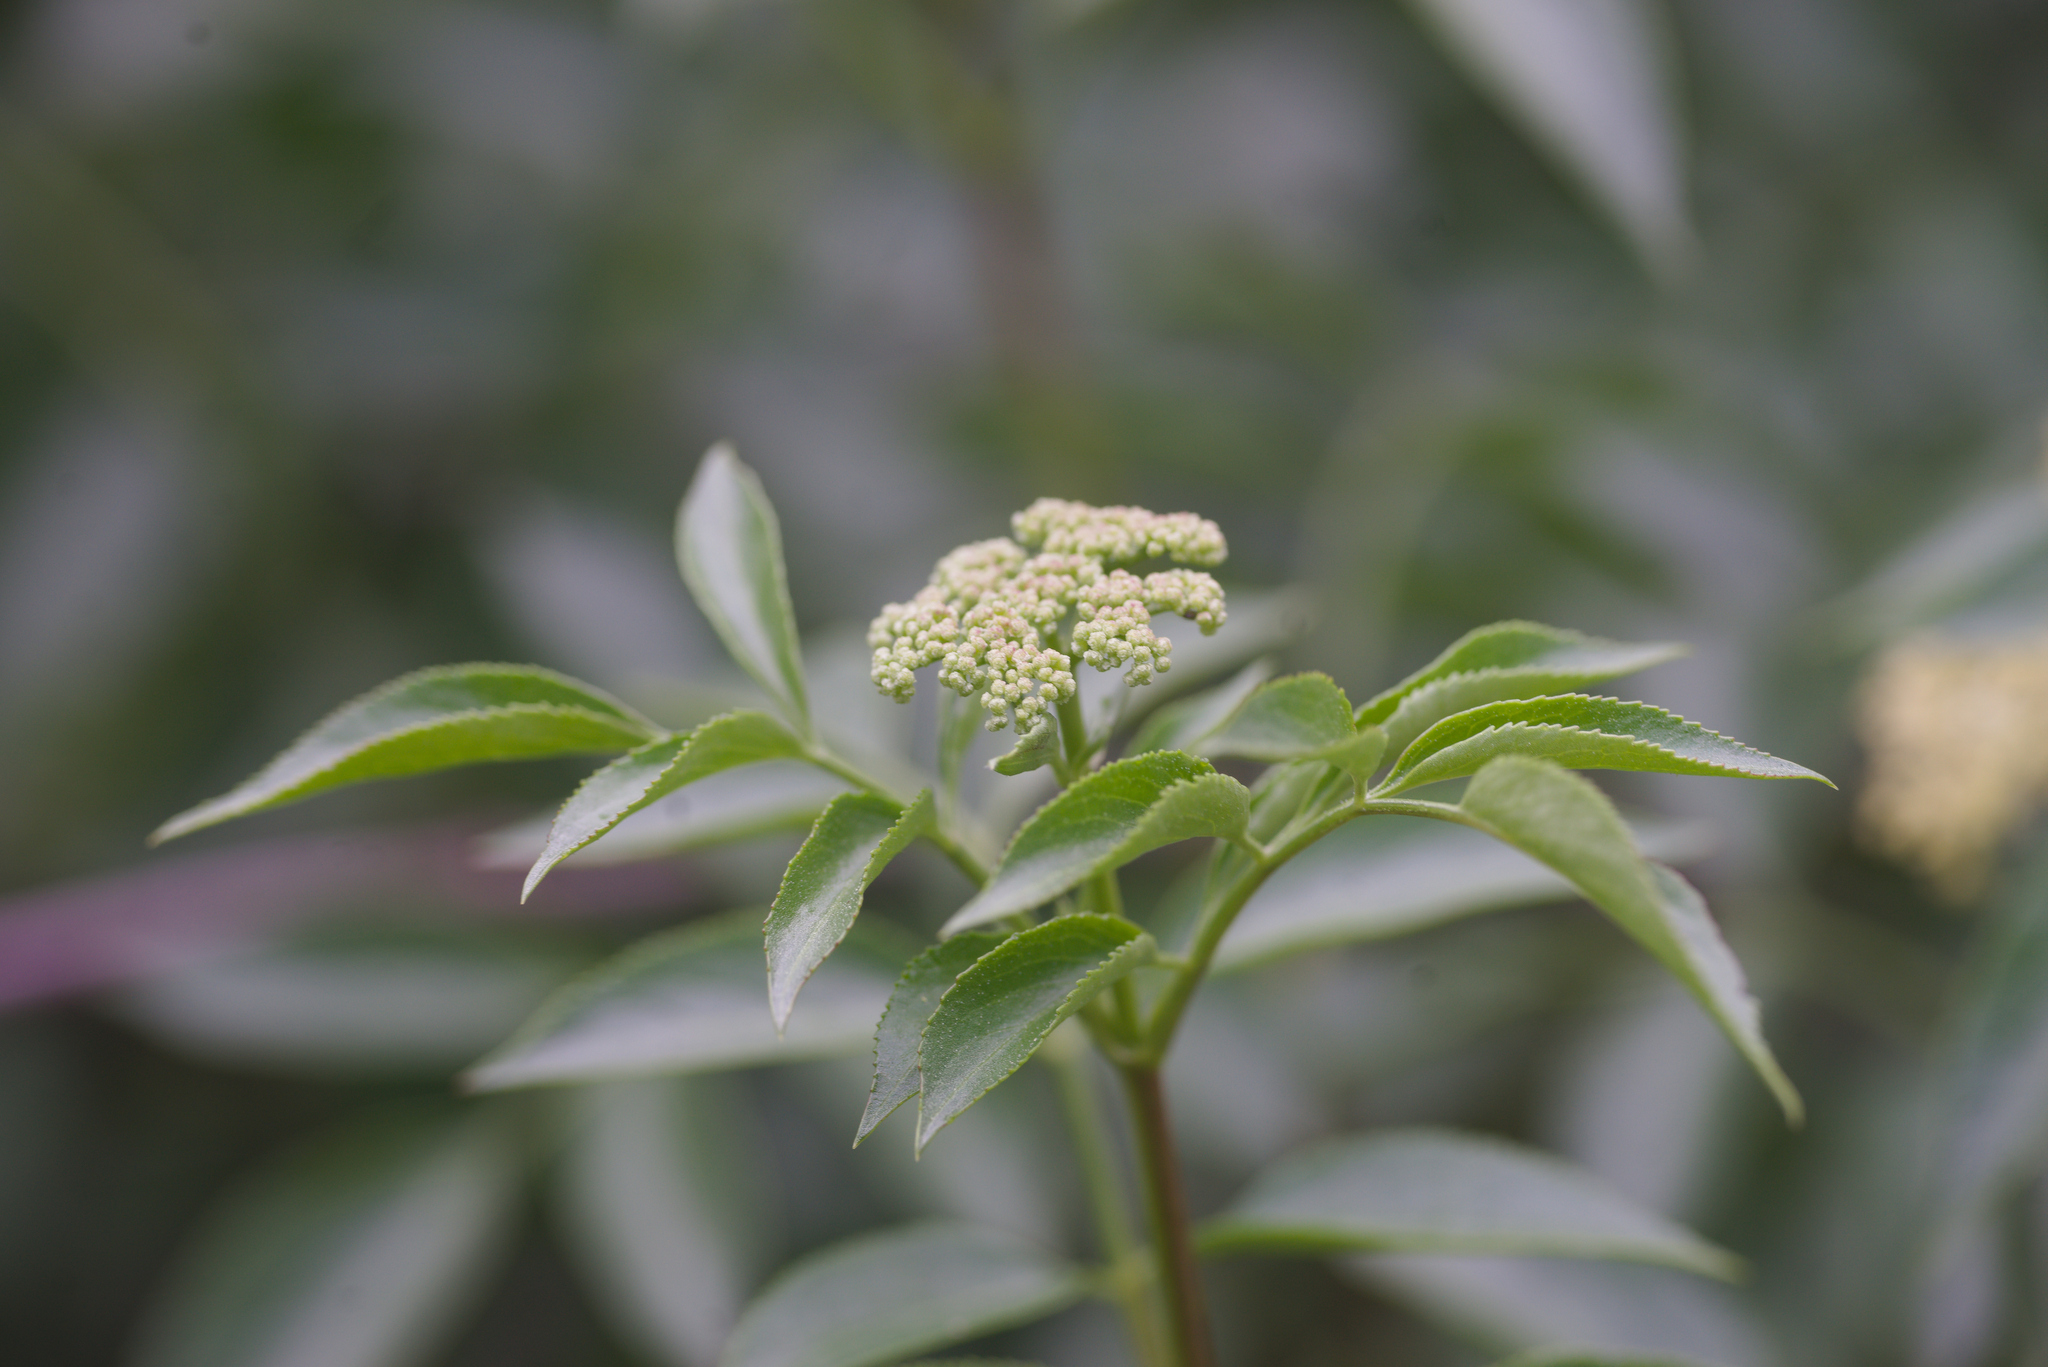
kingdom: Plantae
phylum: Tracheophyta
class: Magnoliopsida
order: Dipsacales
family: Viburnaceae
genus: Sambucus
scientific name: Sambucus cerulea
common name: Blue elder
